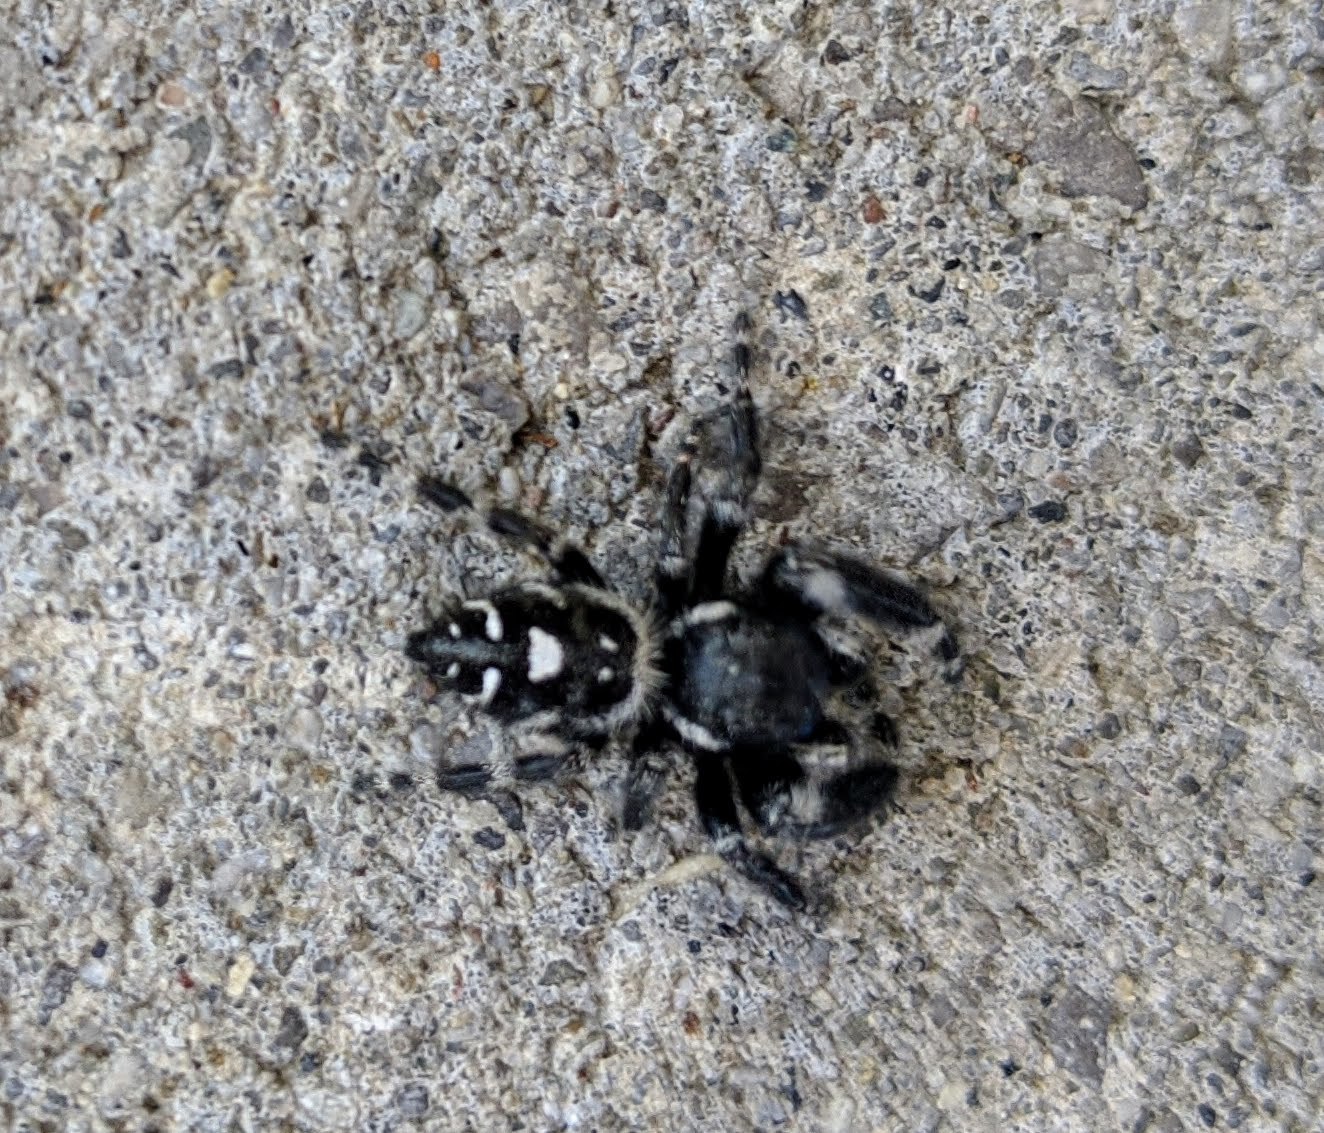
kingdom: Animalia
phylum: Arthropoda
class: Arachnida
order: Araneae
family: Salticidae
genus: Phidippus
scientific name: Phidippus audax
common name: Bold jumper
